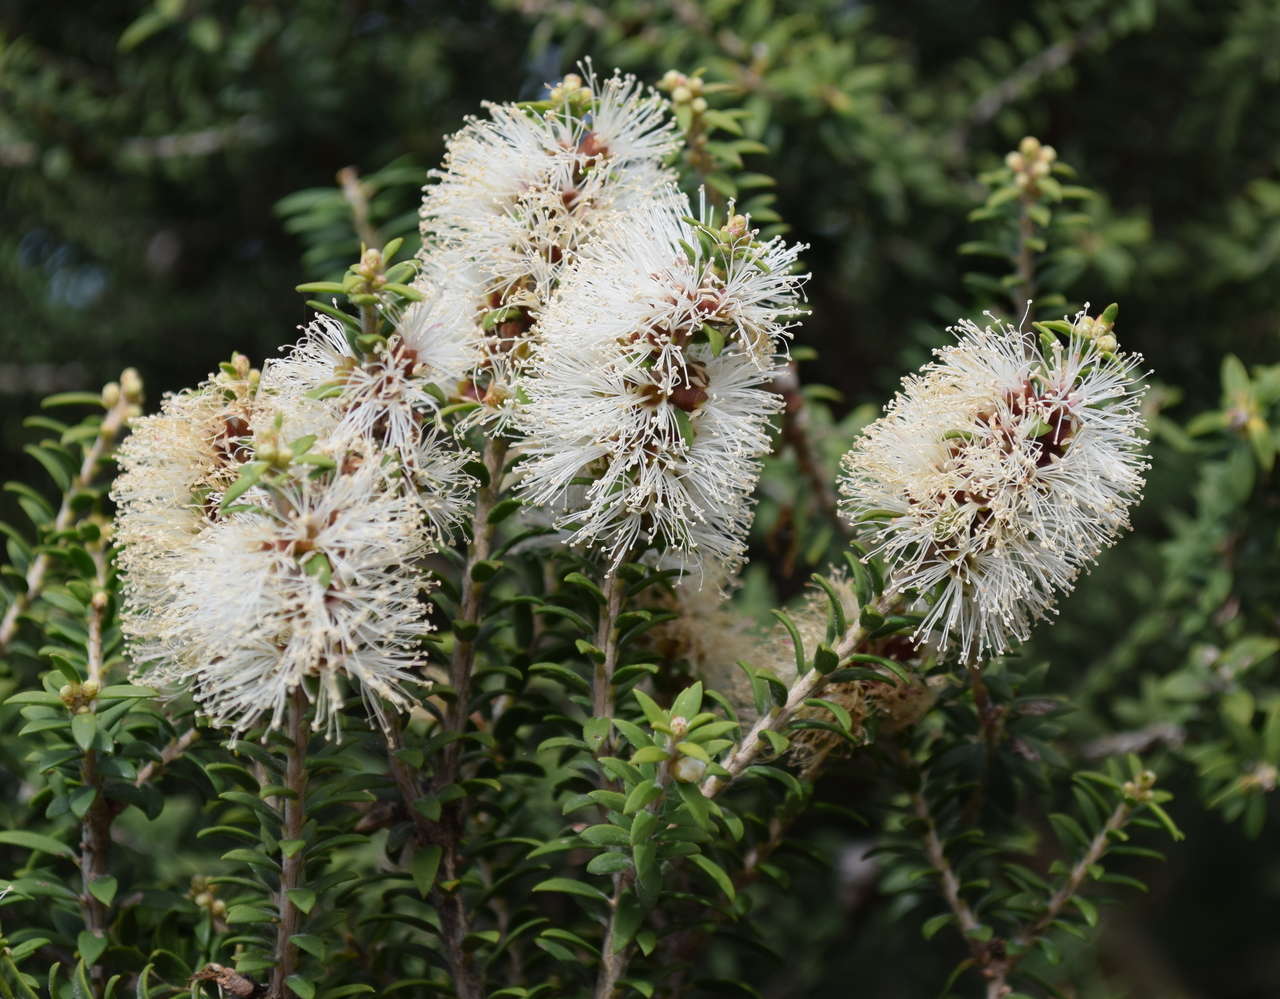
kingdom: Plantae
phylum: Tracheophyta
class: Magnoliopsida
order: Myrtales
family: Myrtaceae
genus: Melaleuca
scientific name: Melaleuca lanceolata
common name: Rottnest island teatree
